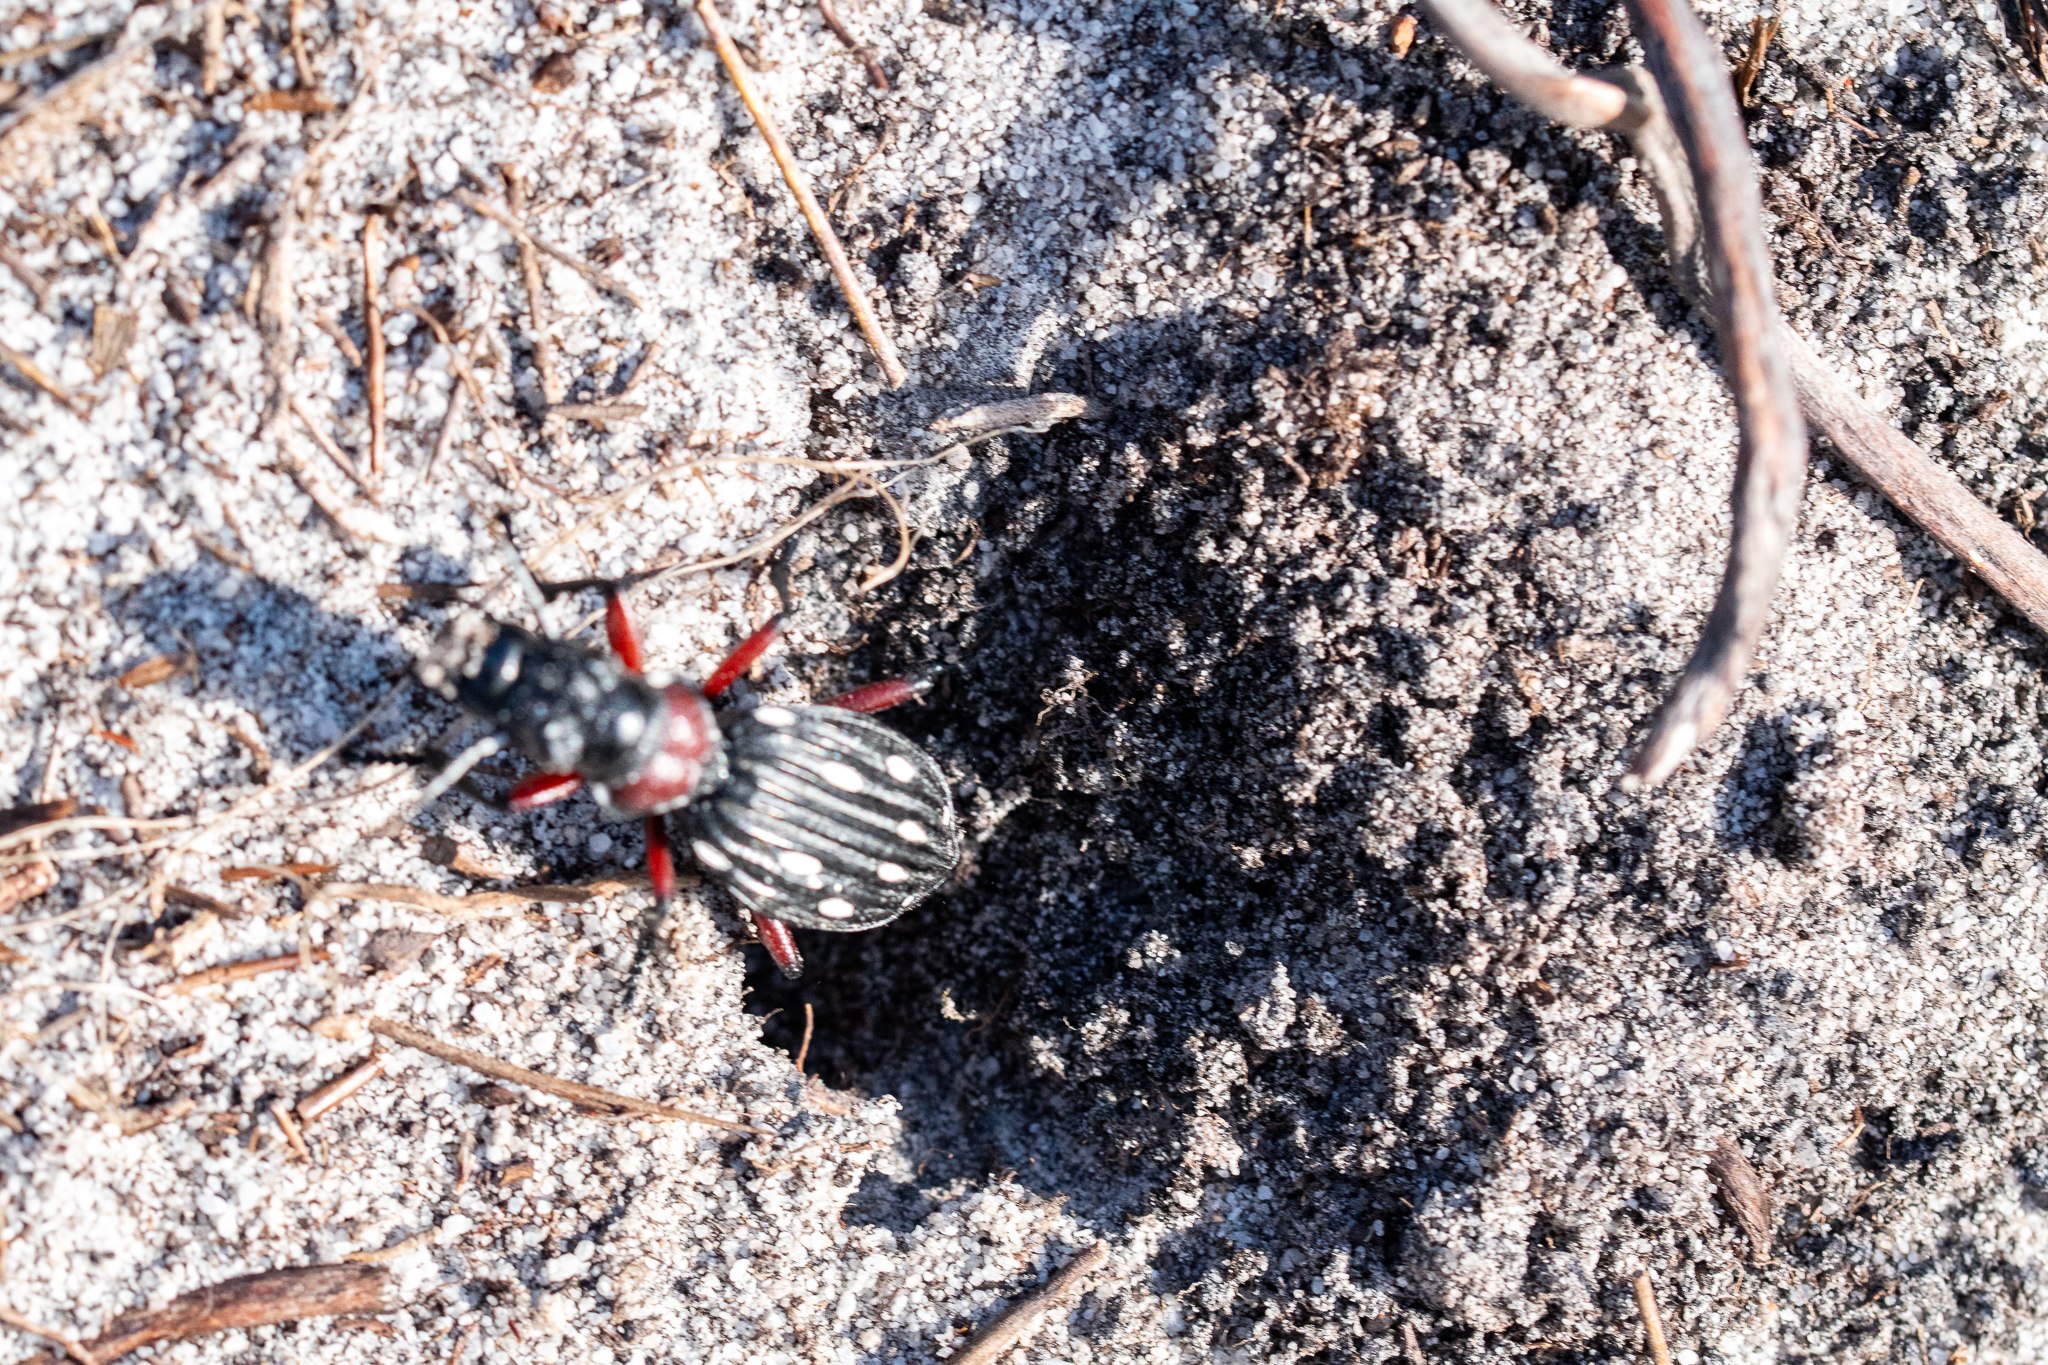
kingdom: Animalia
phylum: Arthropoda
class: Insecta
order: Coleoptera
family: Carabidae
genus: Anthia
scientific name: Anthia decemguttata
